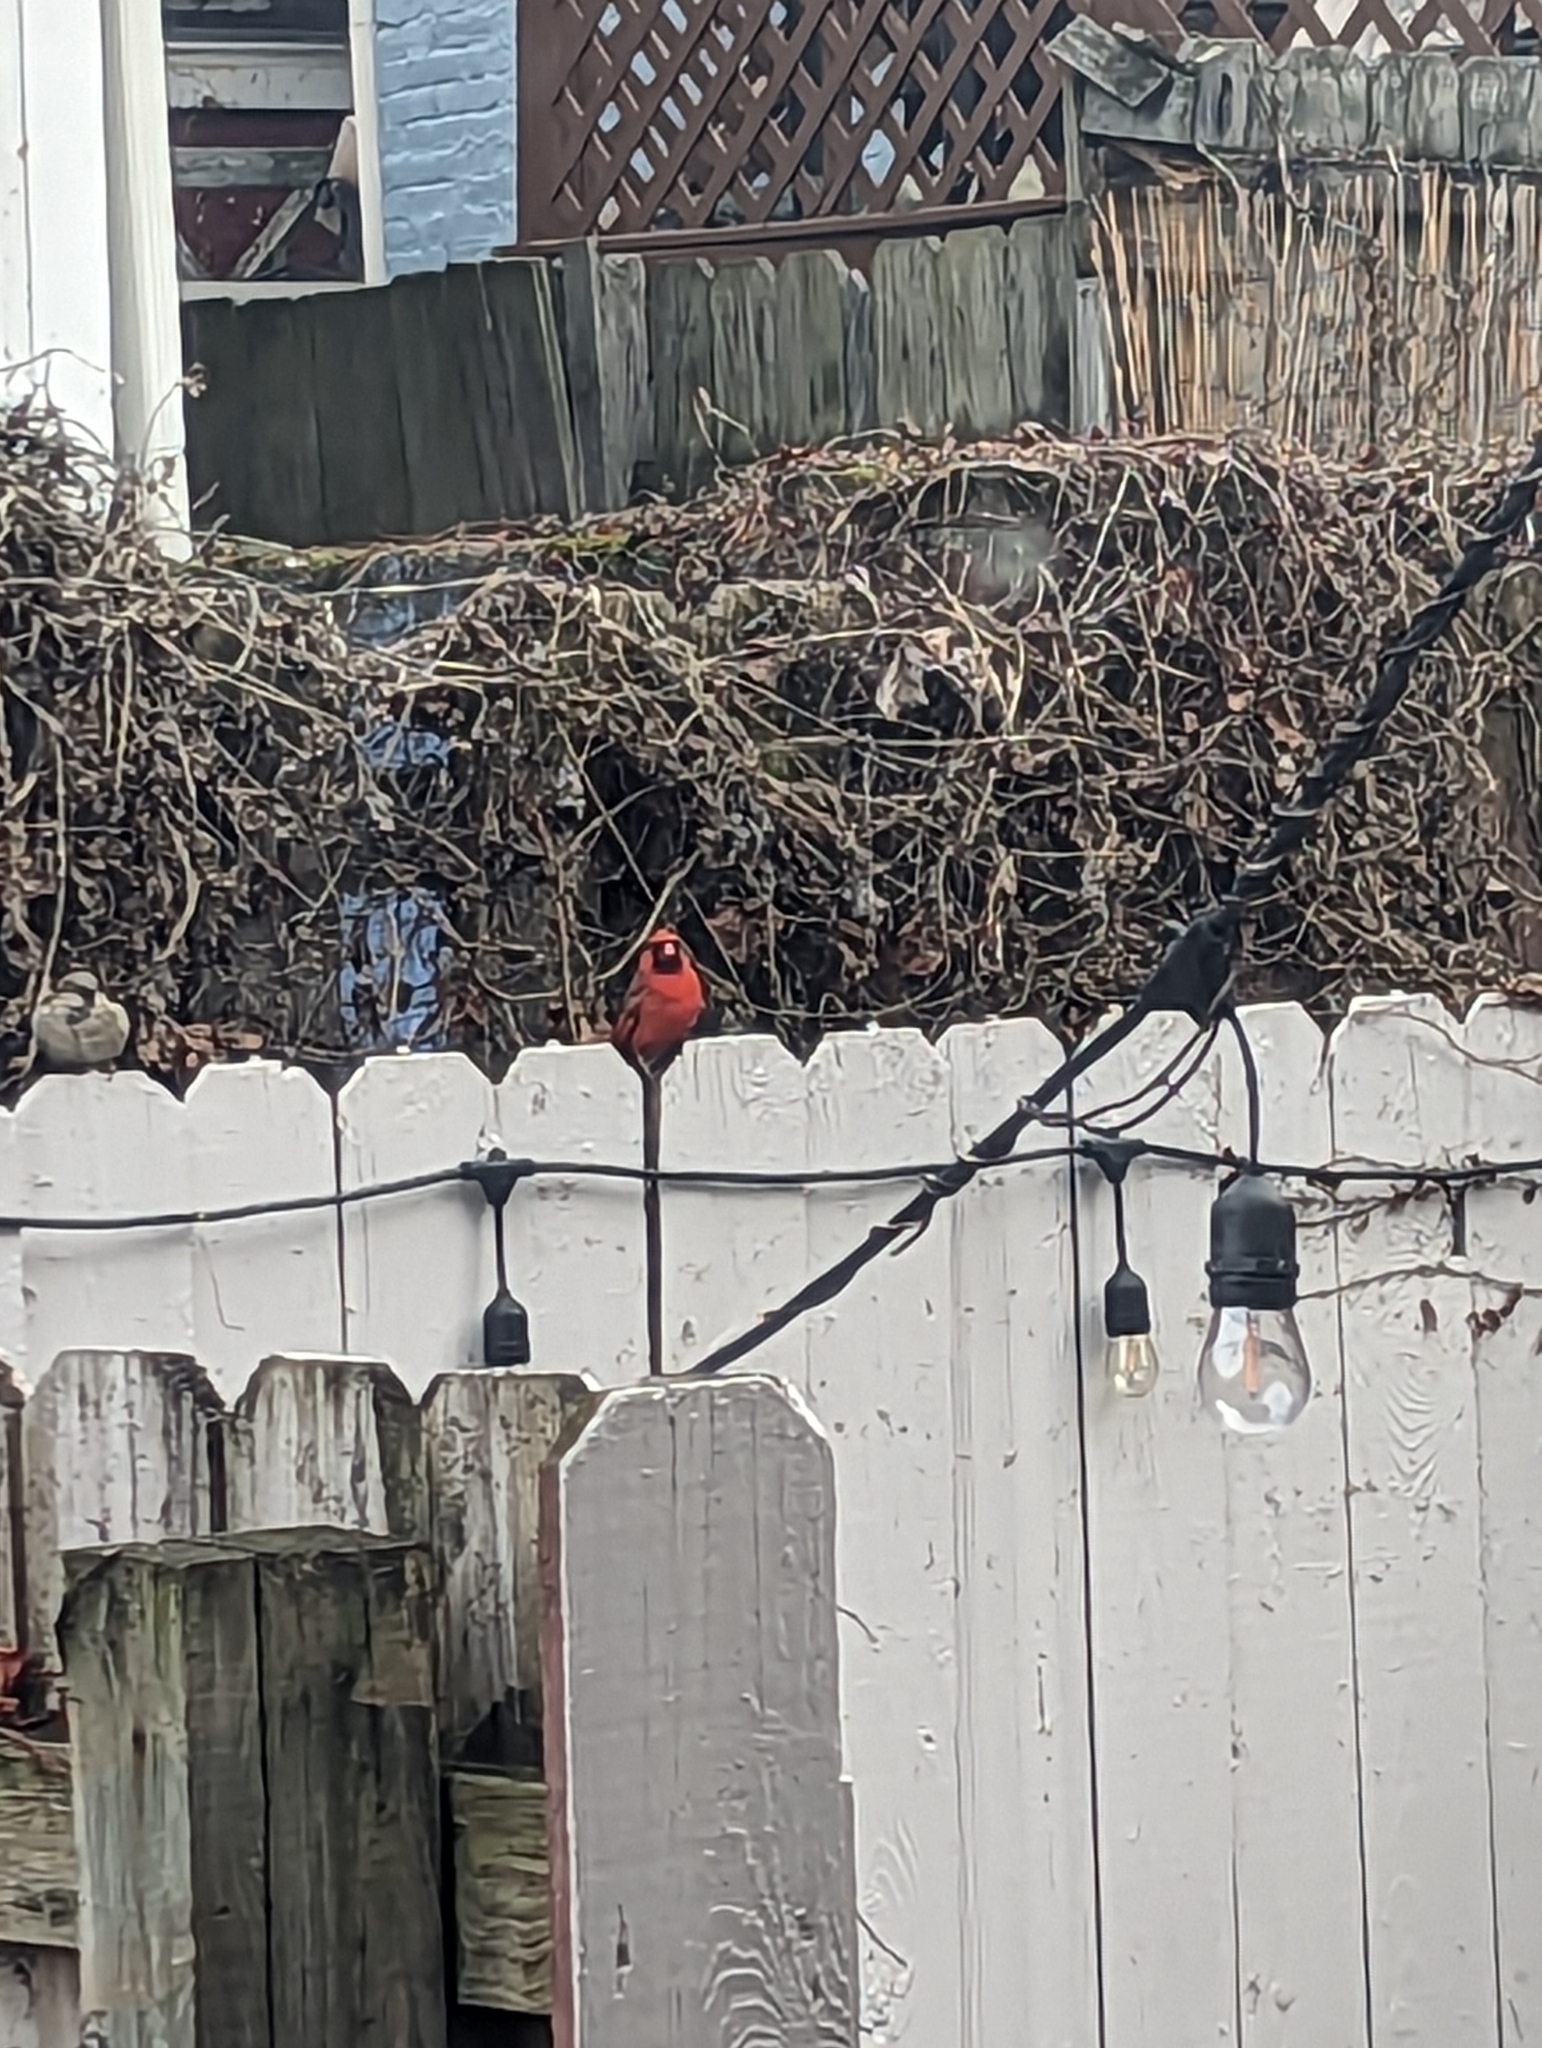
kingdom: Animalia
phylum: Chordata
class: Aves
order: Passeriformes
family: Cardinalidae
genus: Cardinalis
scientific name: Cardinalis cardinalis
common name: Northern cardinal
